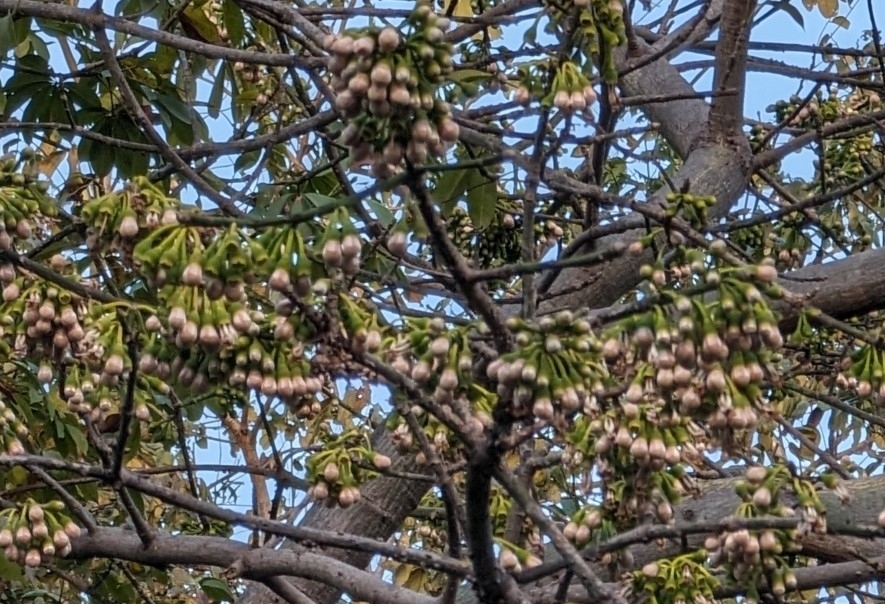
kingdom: Plantae
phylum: Tracheophyta
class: Magnoliopsida
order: Malvales
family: Malvaceae
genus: Ceiba
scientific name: Ceiba pentandra
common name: Kapok
